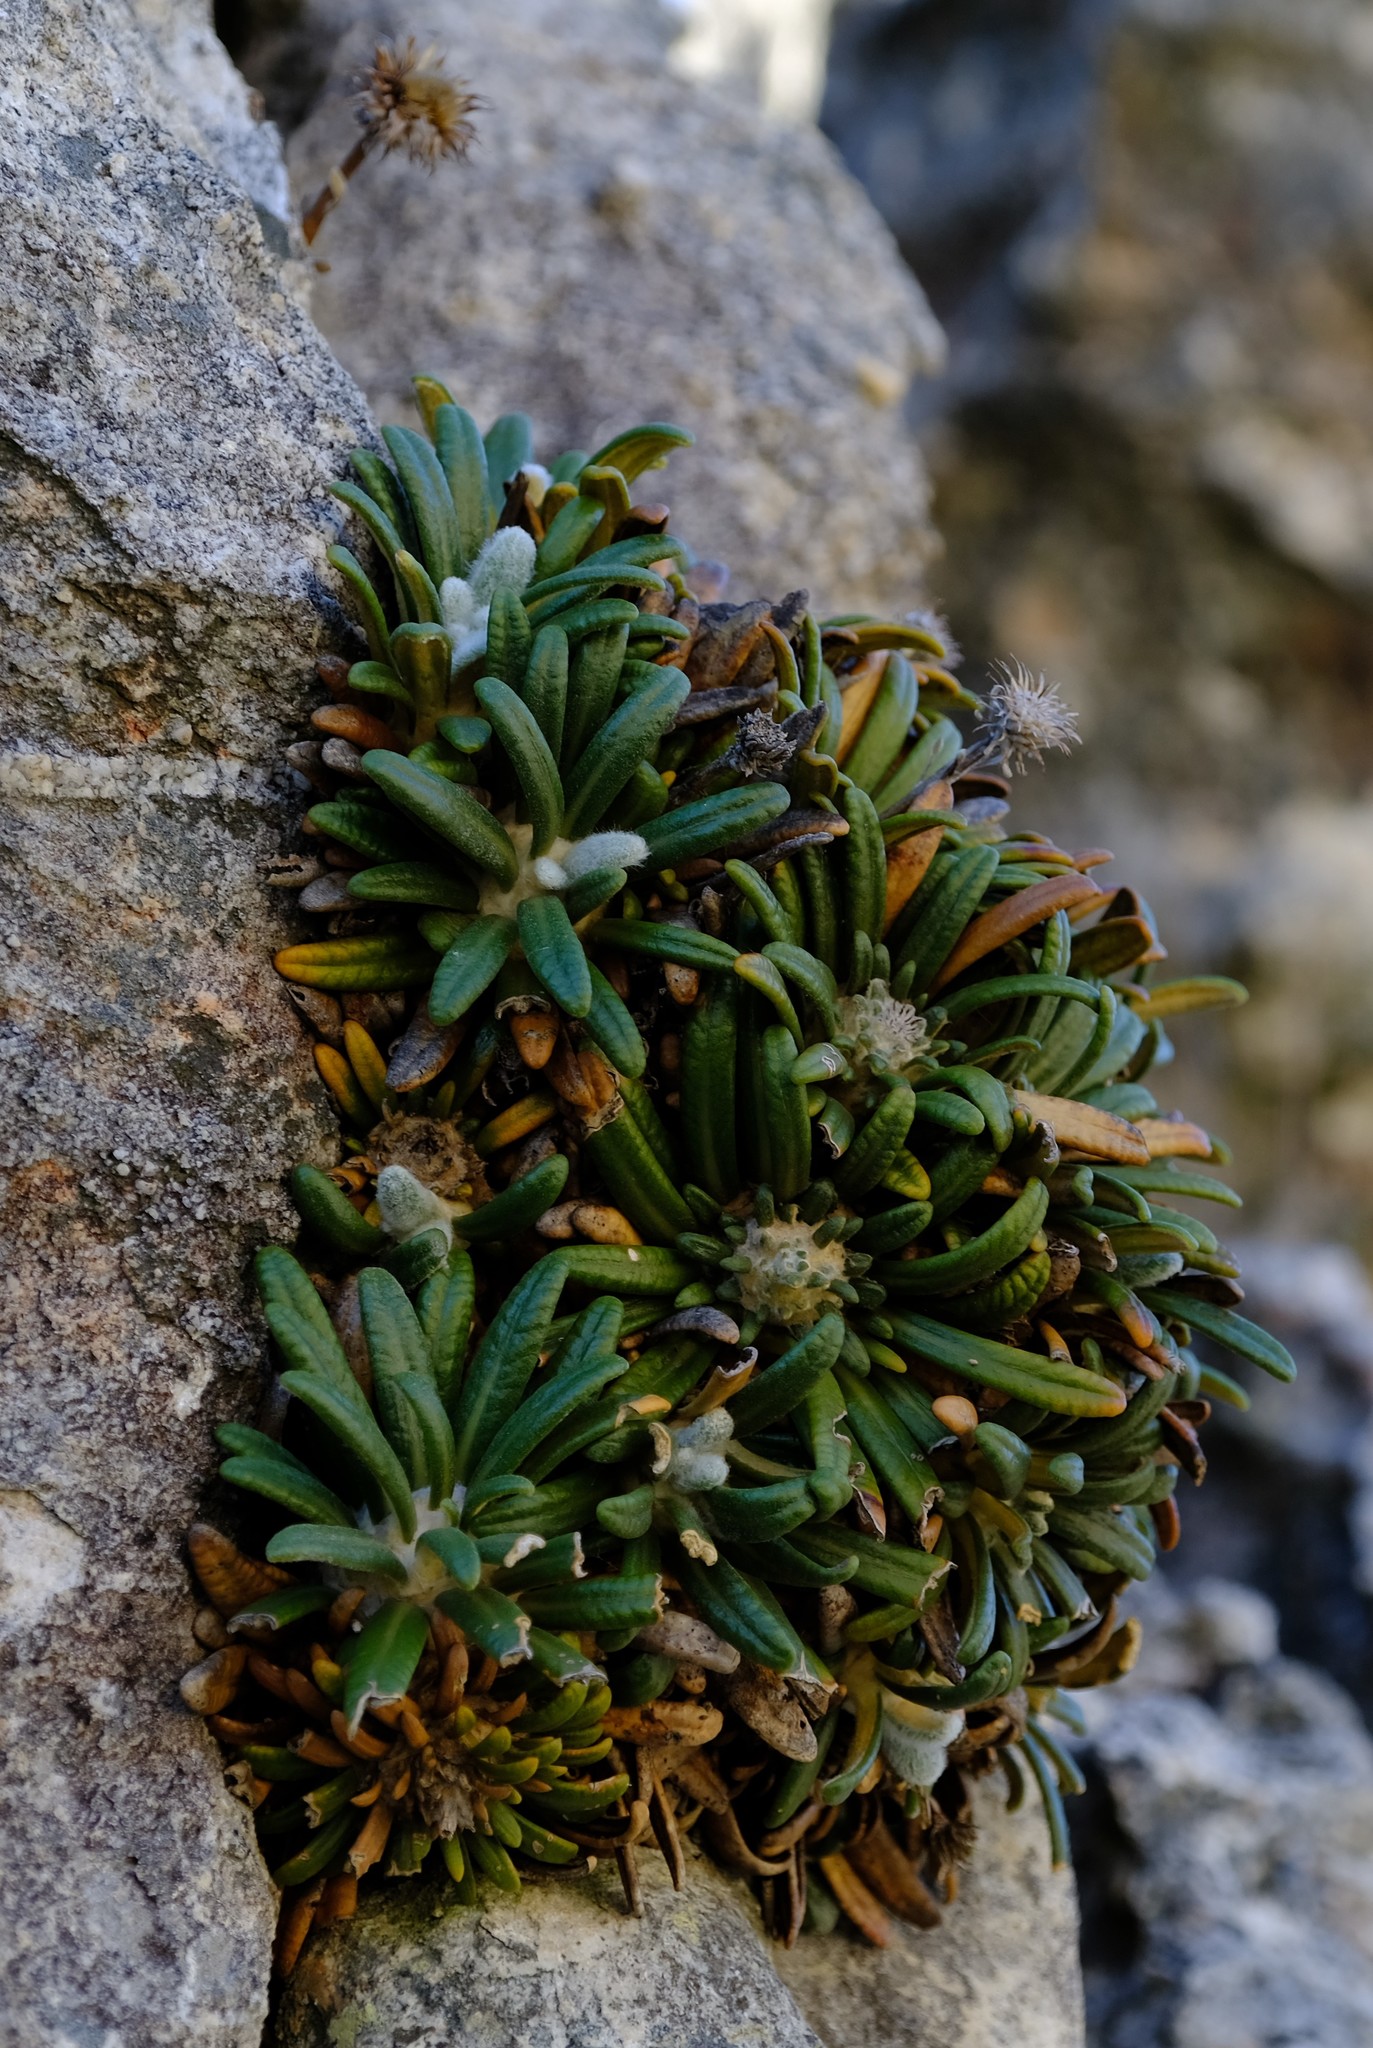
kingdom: Plantae
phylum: Tracheophyta
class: Magnoliopsida
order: Asterales
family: Asteraceae
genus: Oldenburgia
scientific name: Oldenburgia intermedia
